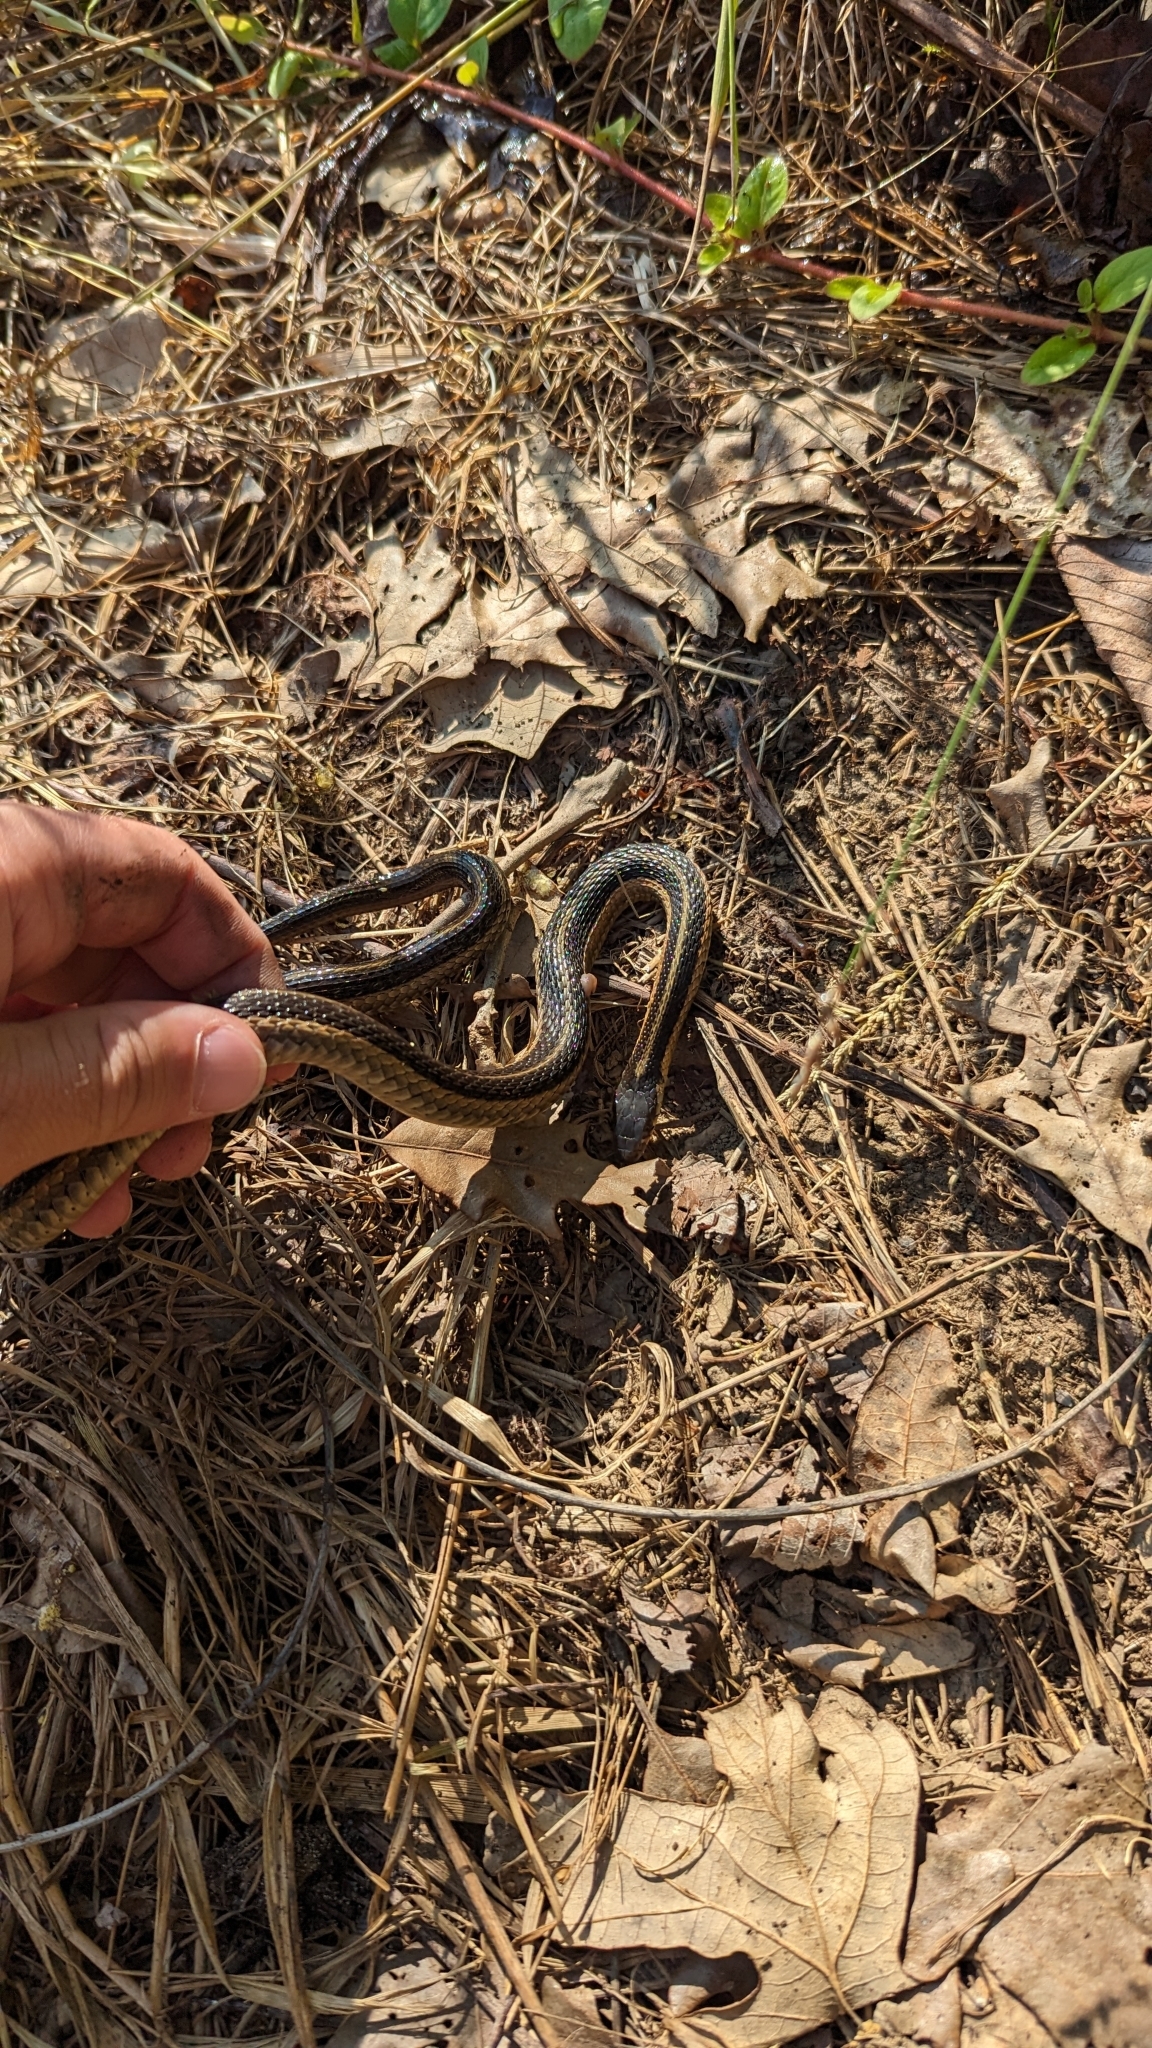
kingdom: Animalia
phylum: Chordata
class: Squamata
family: Colubridae
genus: Thamnophis
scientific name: Thamnophis sirtalis
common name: Common garter snake
